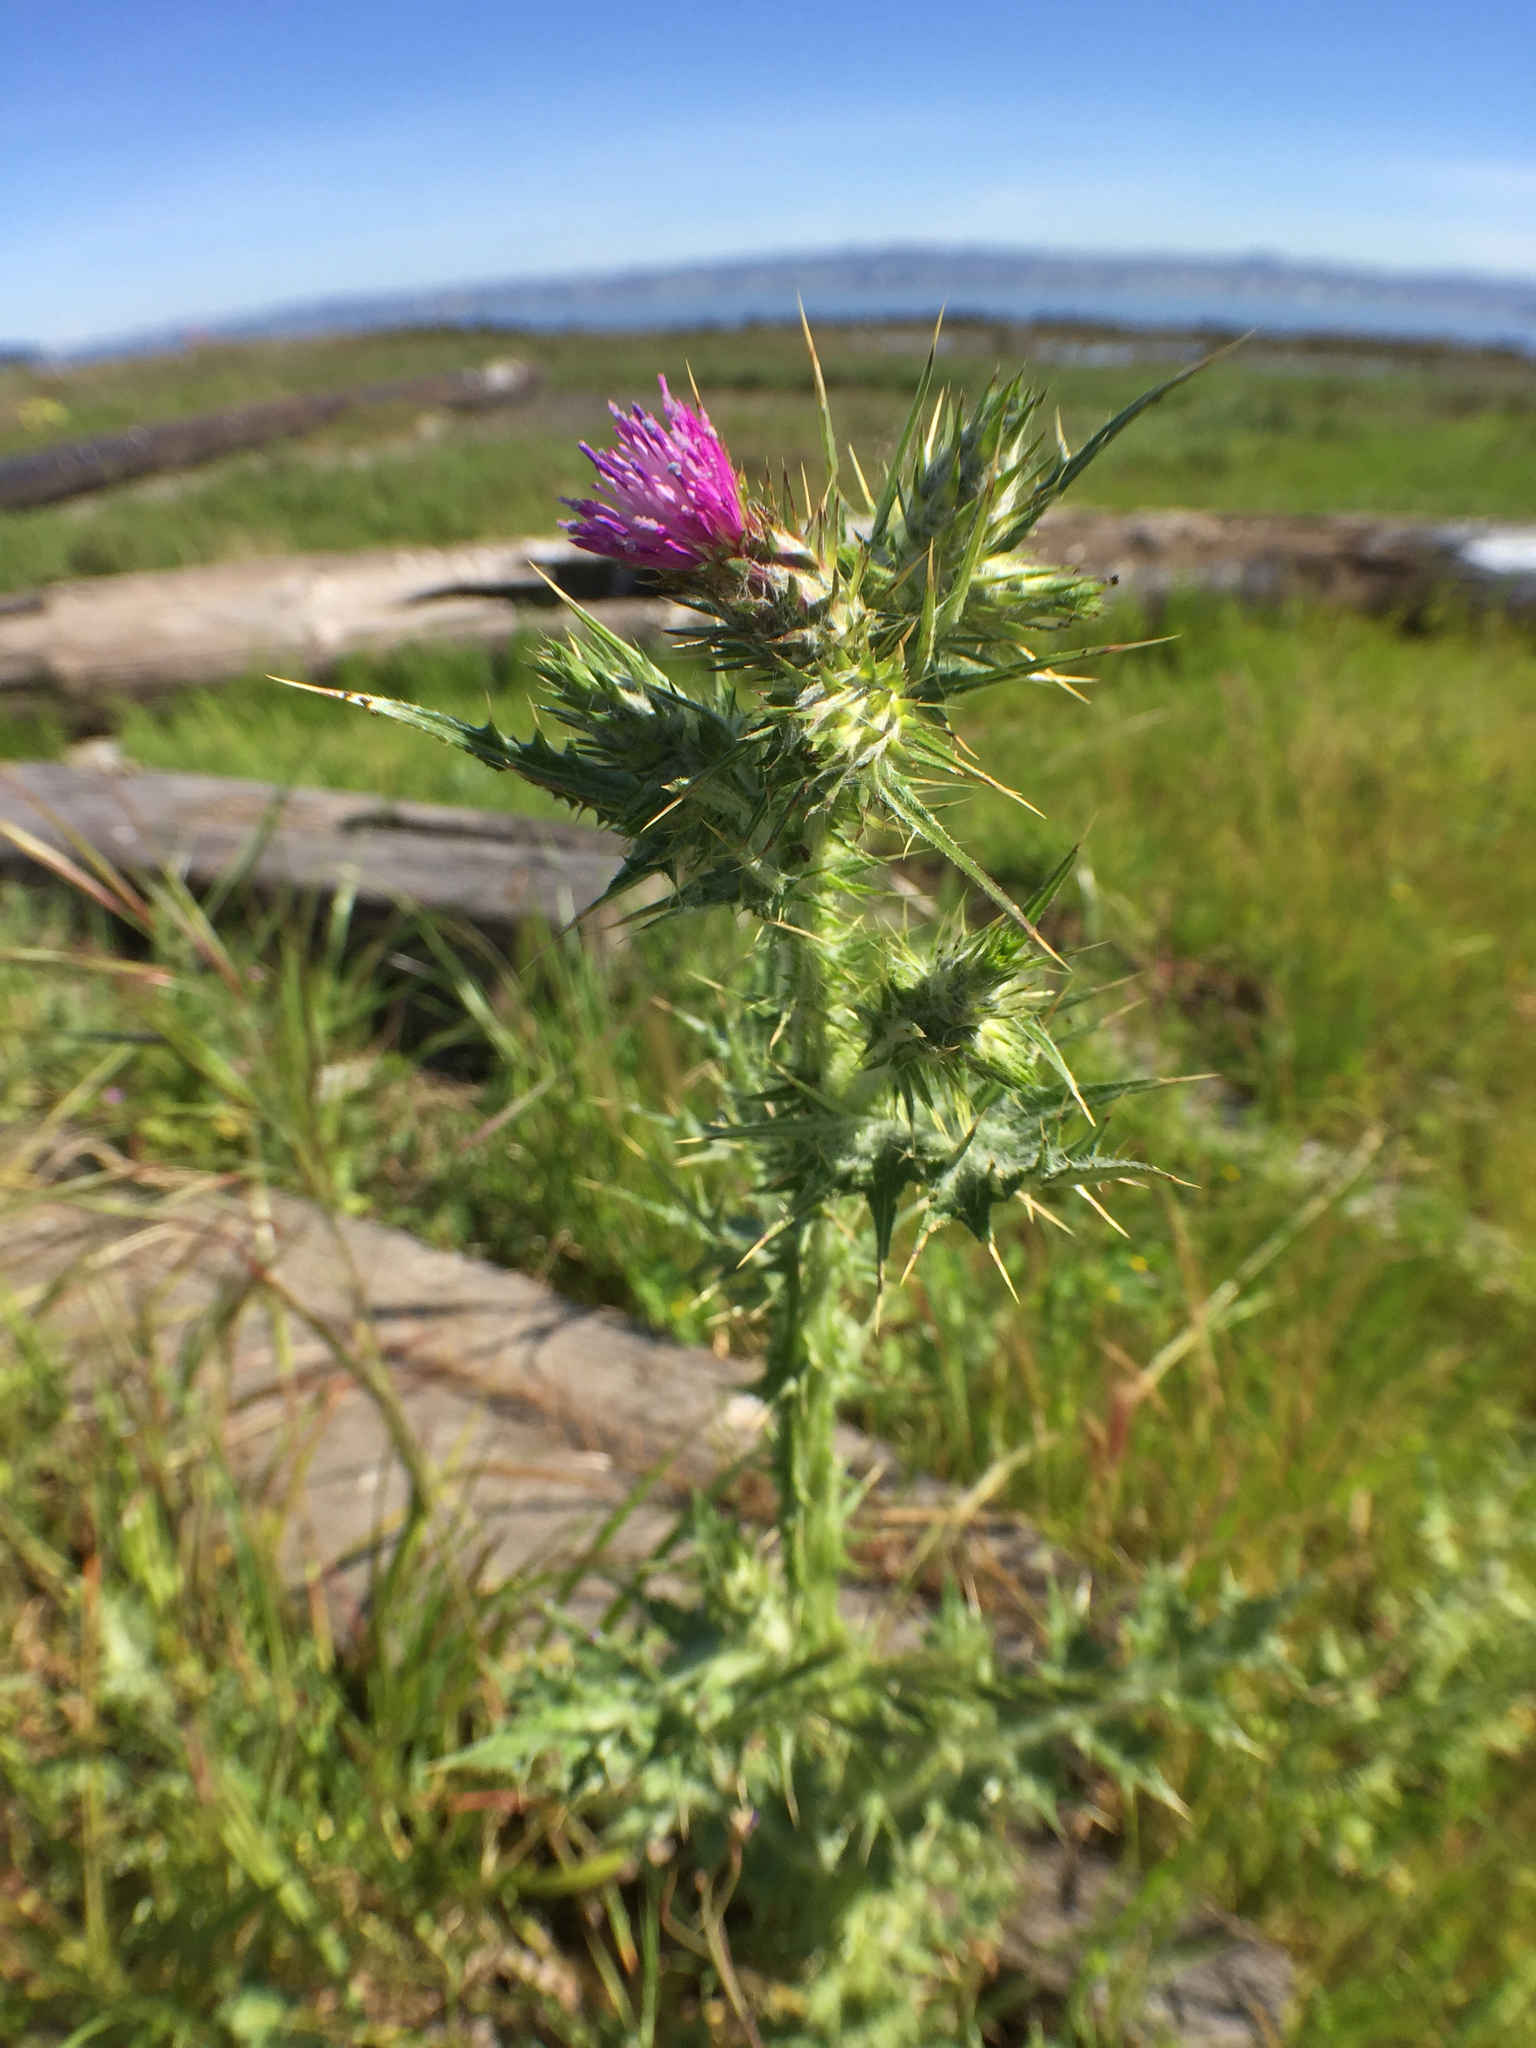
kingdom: Plantae
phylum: Tracheophyta
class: Magnoliopsida
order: Asterales
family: Asteraceae
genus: Carduus
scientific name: Carduus pycnocephalus
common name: Plymouth thistle
